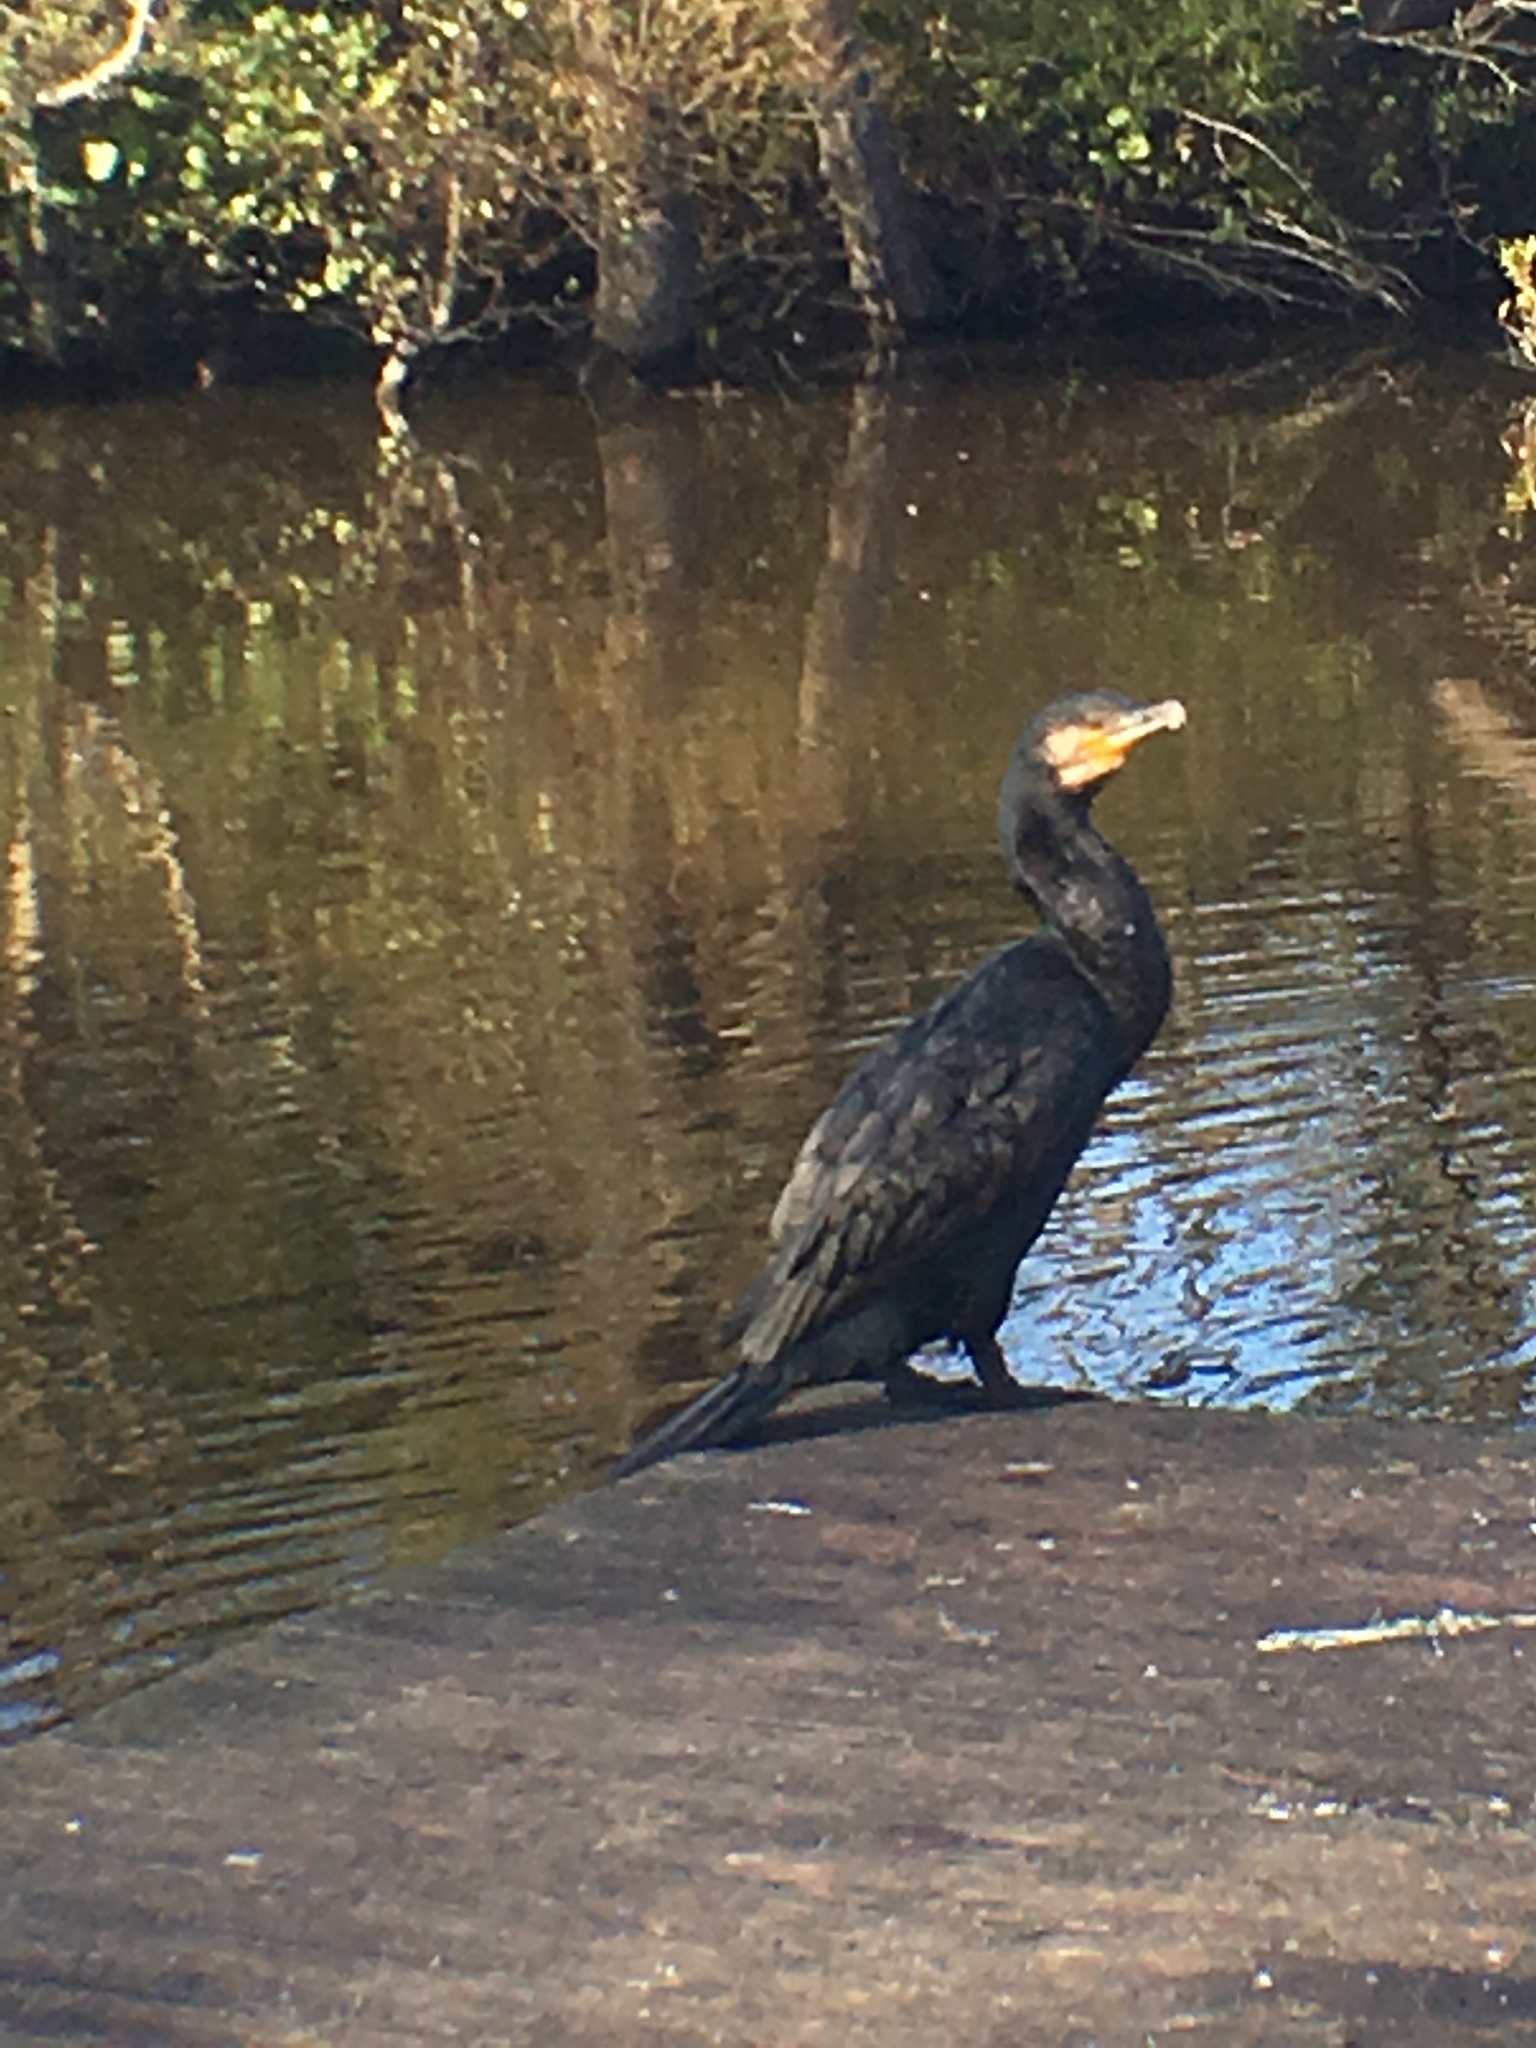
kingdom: Animalia
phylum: Chordata
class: Aves
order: Suliformes
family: Phalacrocoracidae
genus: Phalacrocorax
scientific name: Phalacrocorax carbo
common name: Great cormorant
